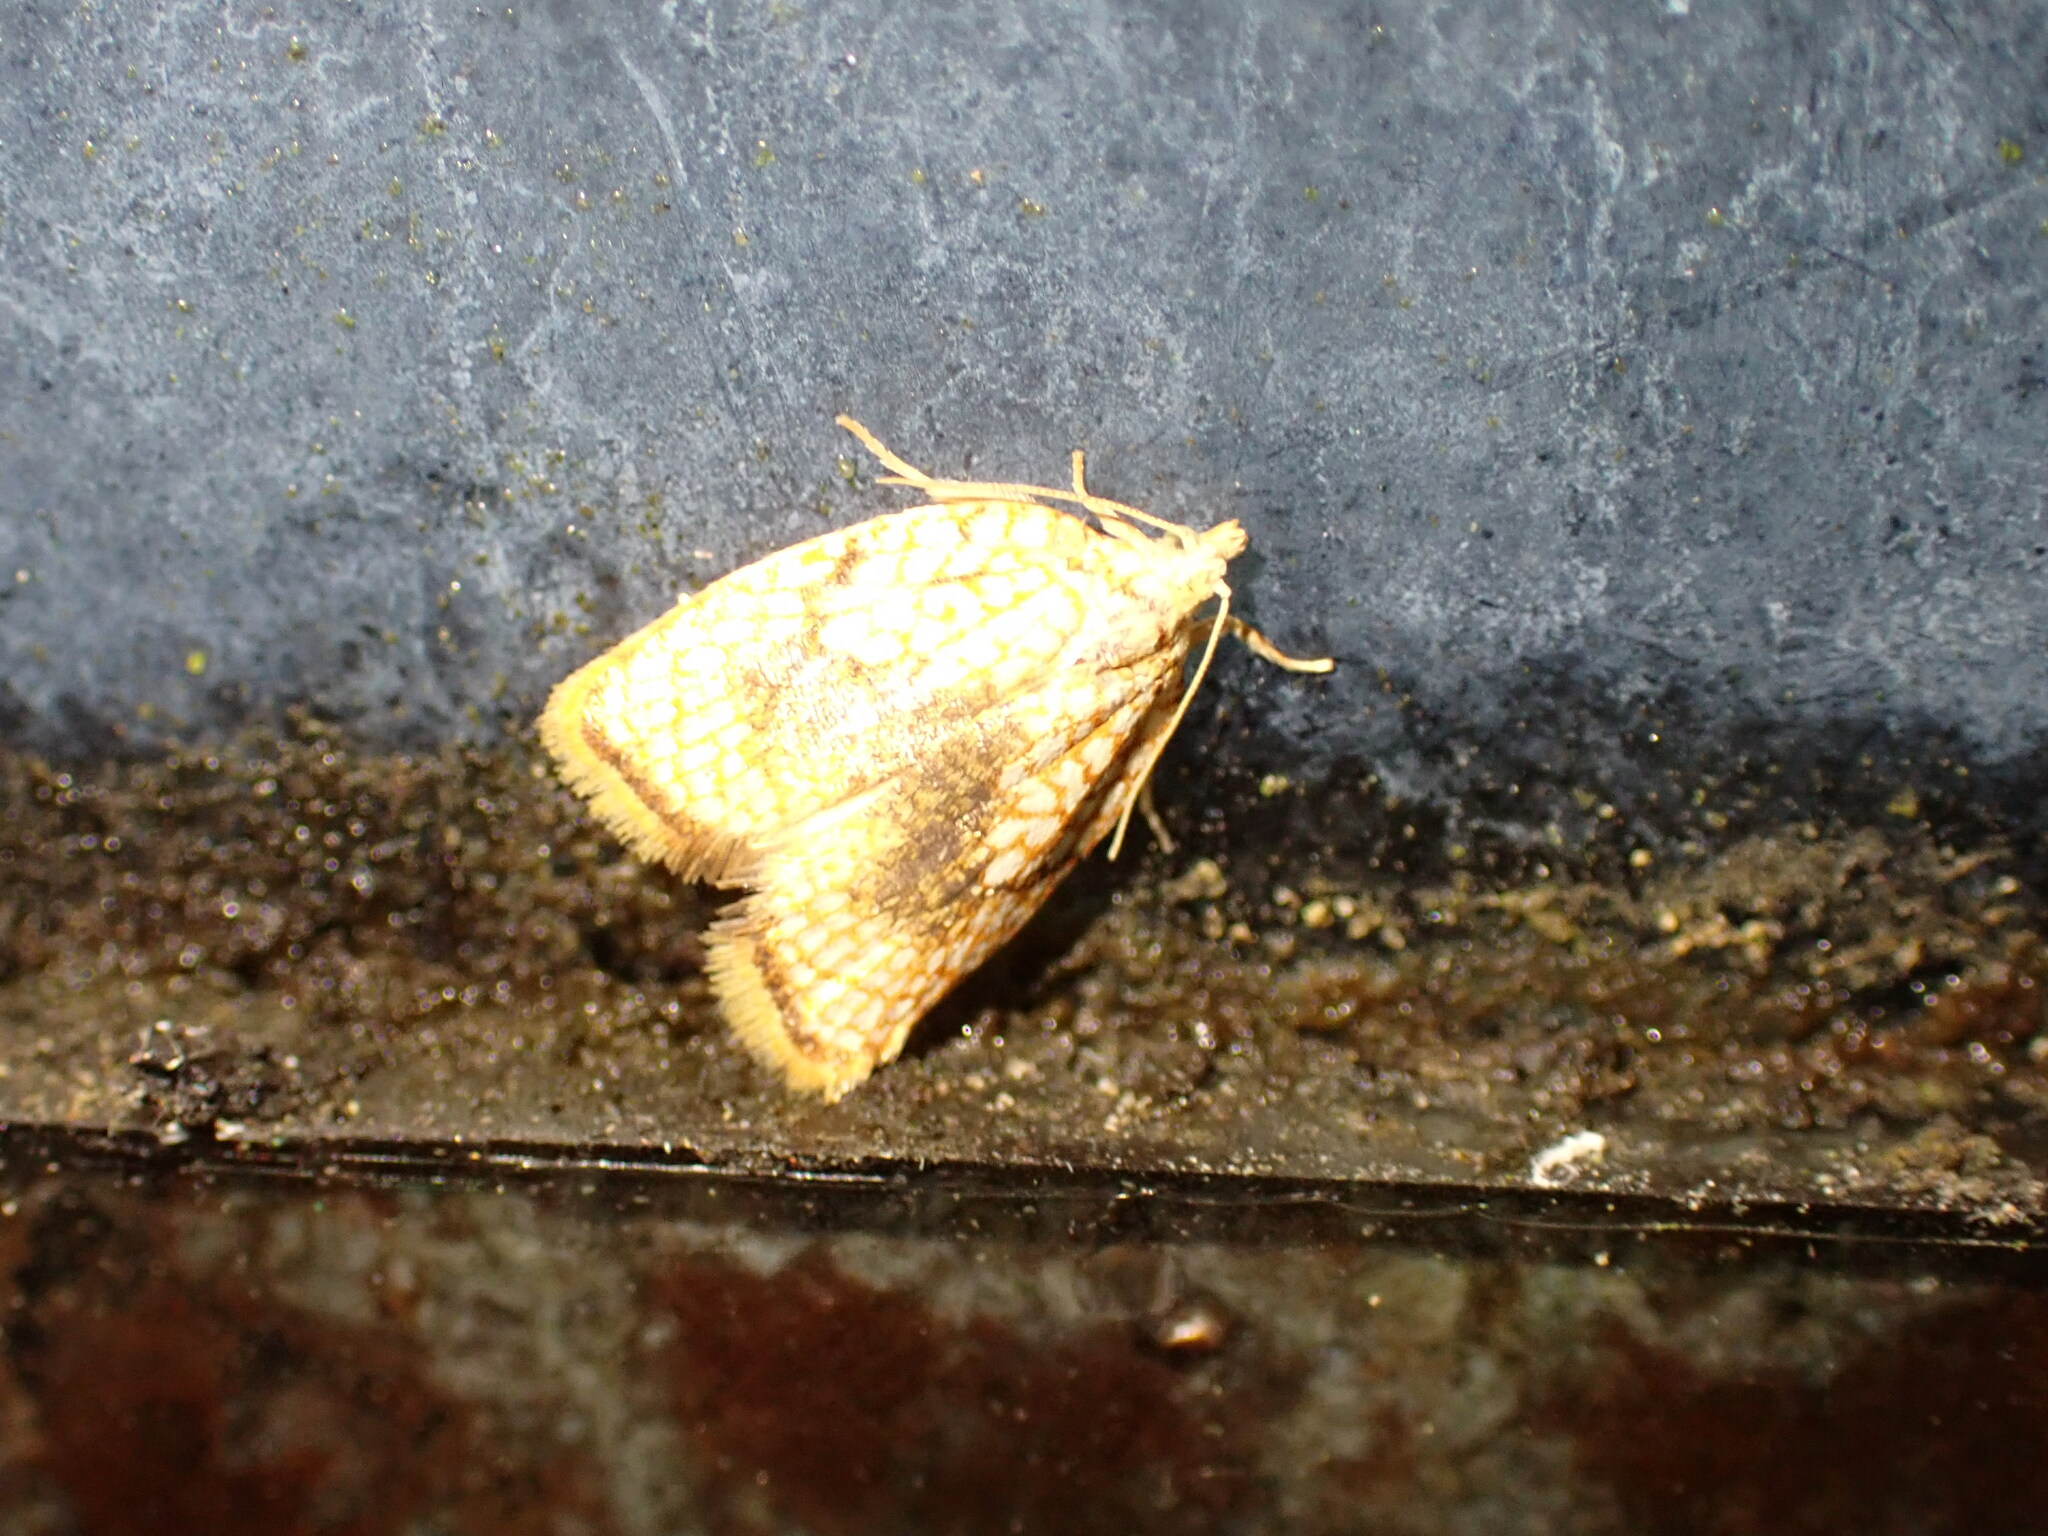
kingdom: Animalia
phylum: Arthropoda
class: Insecta
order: Lepidoptera
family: Tortricidae
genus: Acleris
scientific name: Acleris forsskaleana
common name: Maple button
